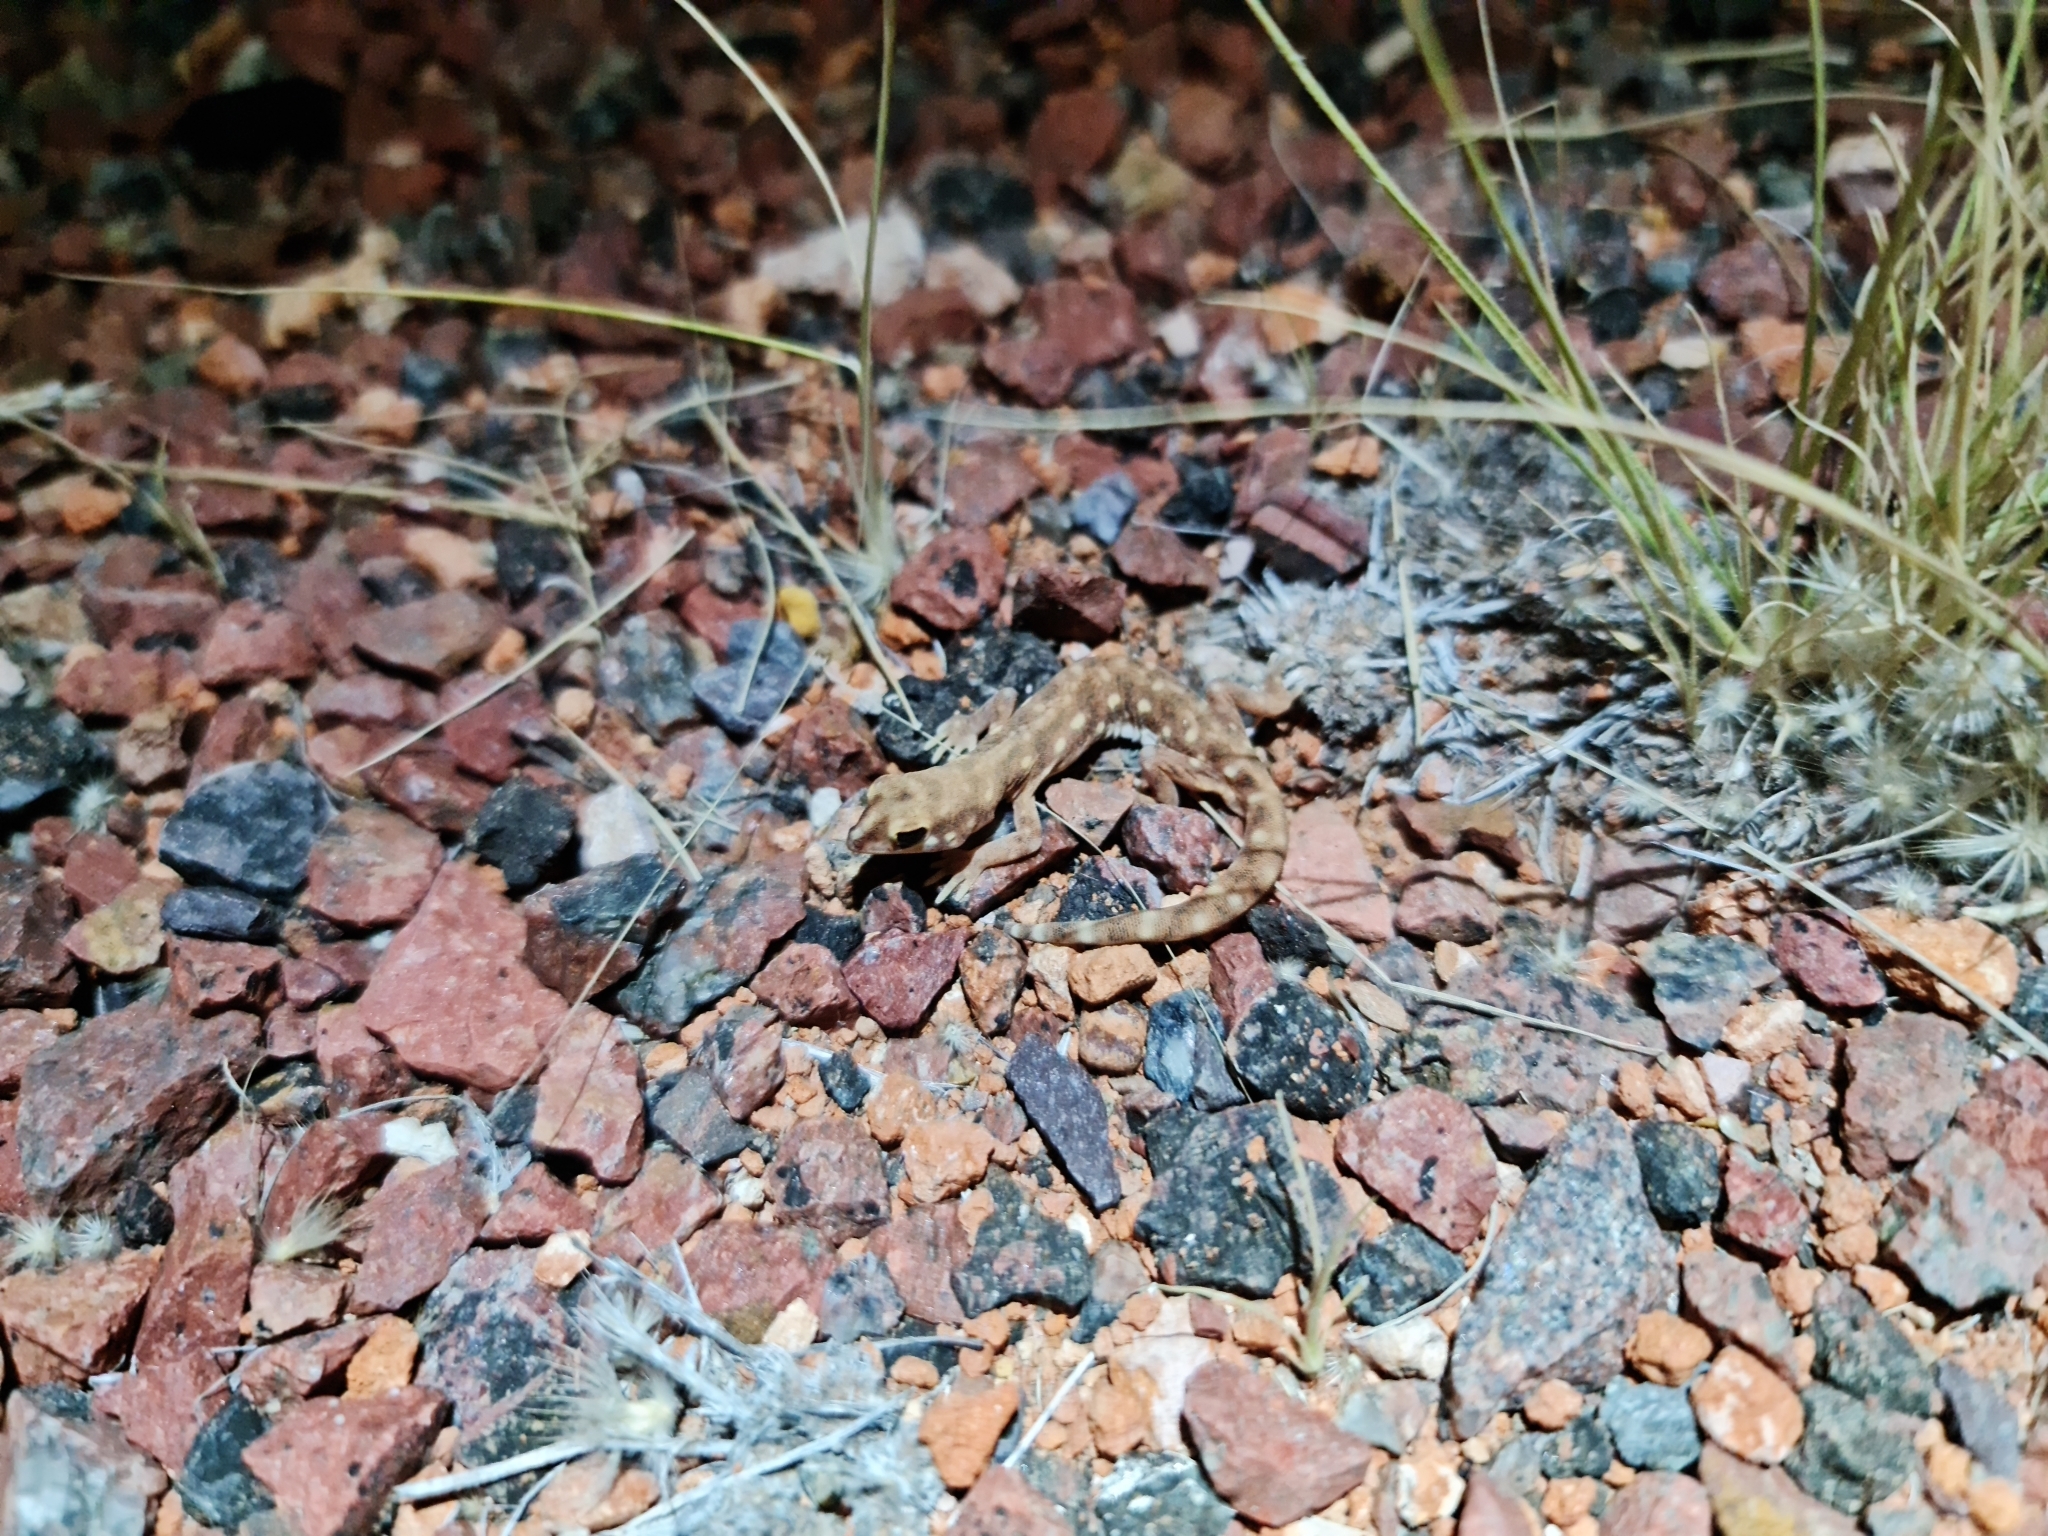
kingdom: Animalia
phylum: Chordata
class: Squamata
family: Diplodactylidae
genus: Rhynchoedura
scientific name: Rhynchoedura eyrensis
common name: Eyre basin beaked gecko
